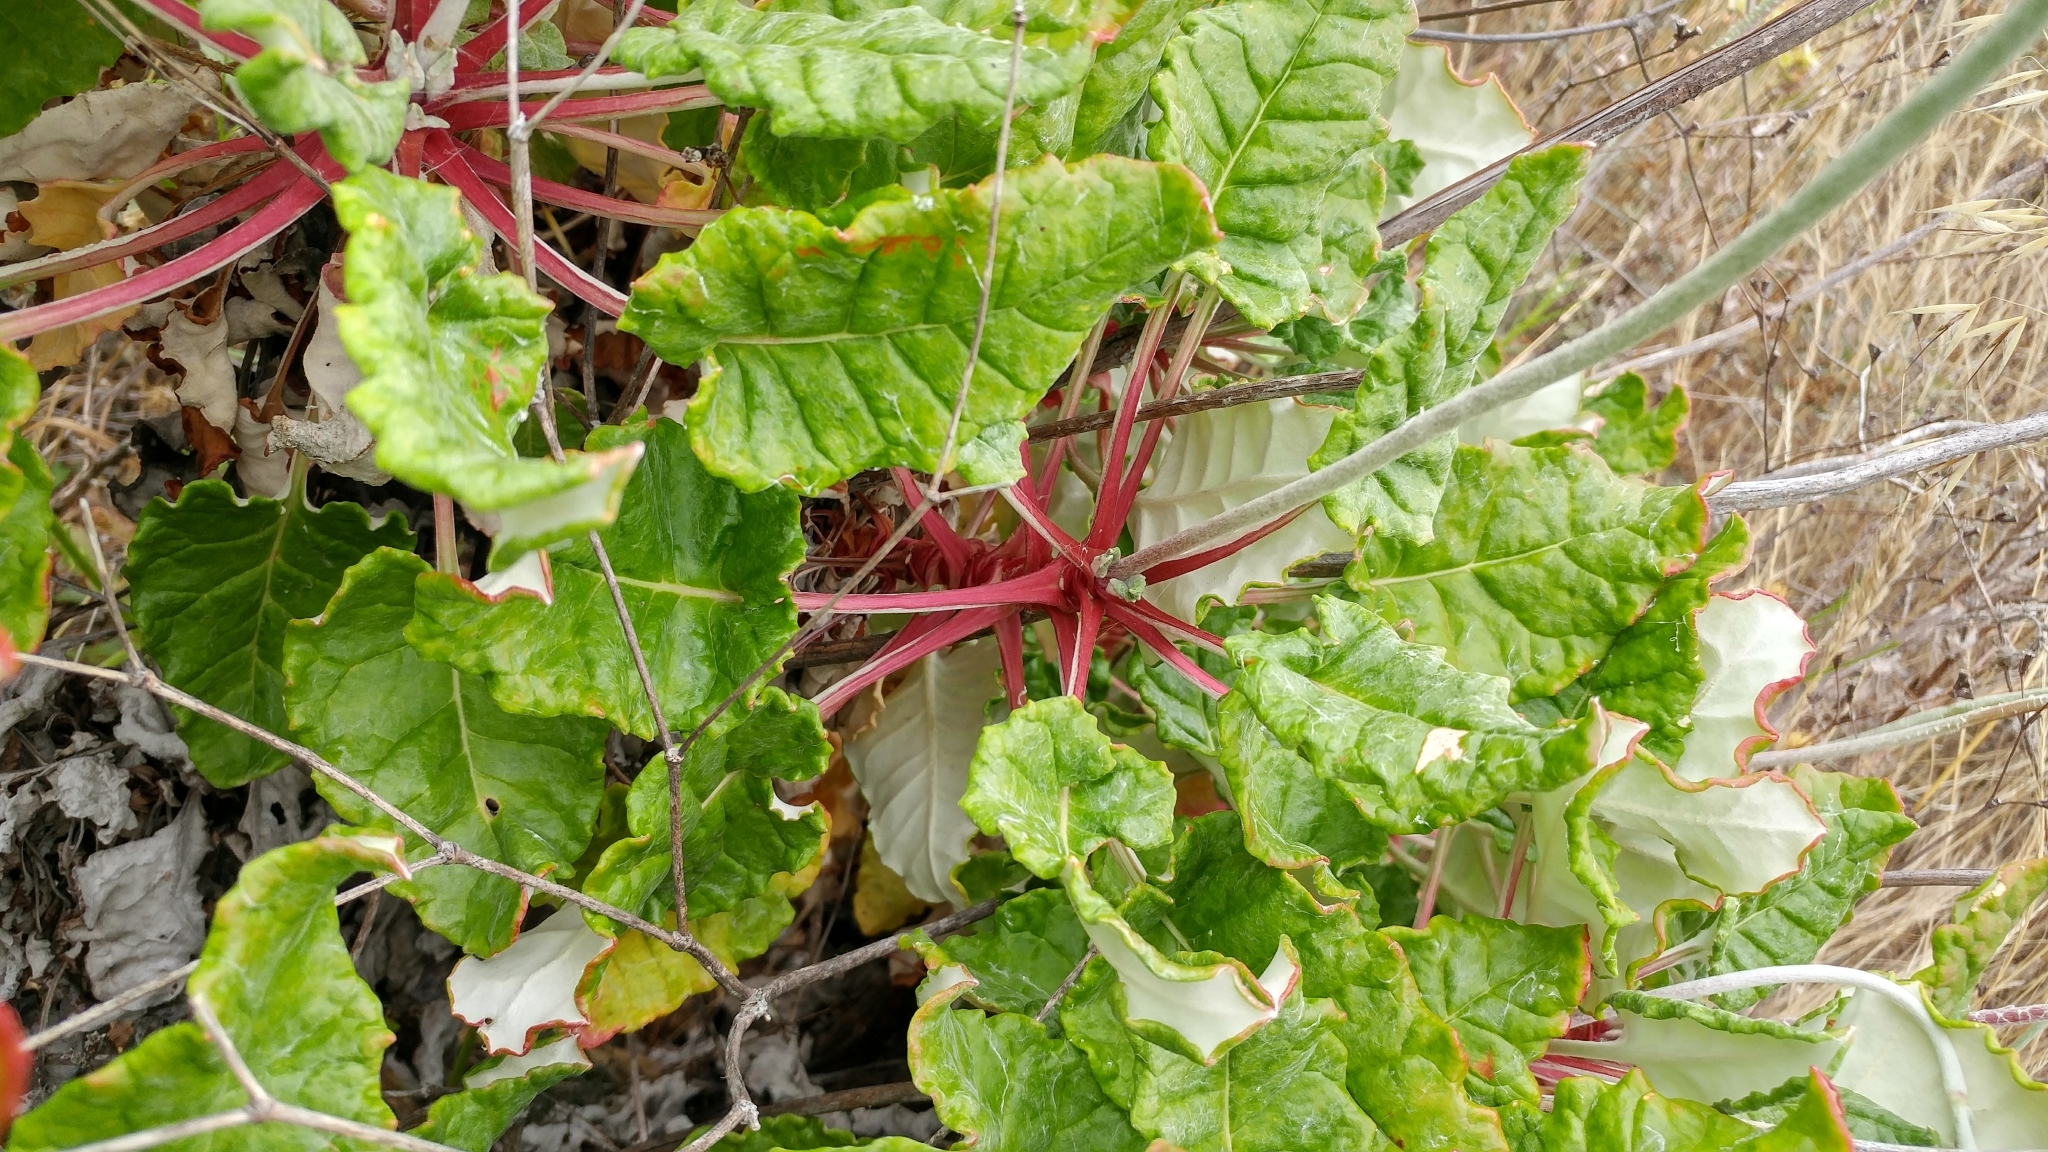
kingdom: Plantae
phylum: Tracheophyta
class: Magnoliopsida
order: Caryophyllales
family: Polygonaceae
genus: Eriogonum
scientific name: Eriogonum grande
